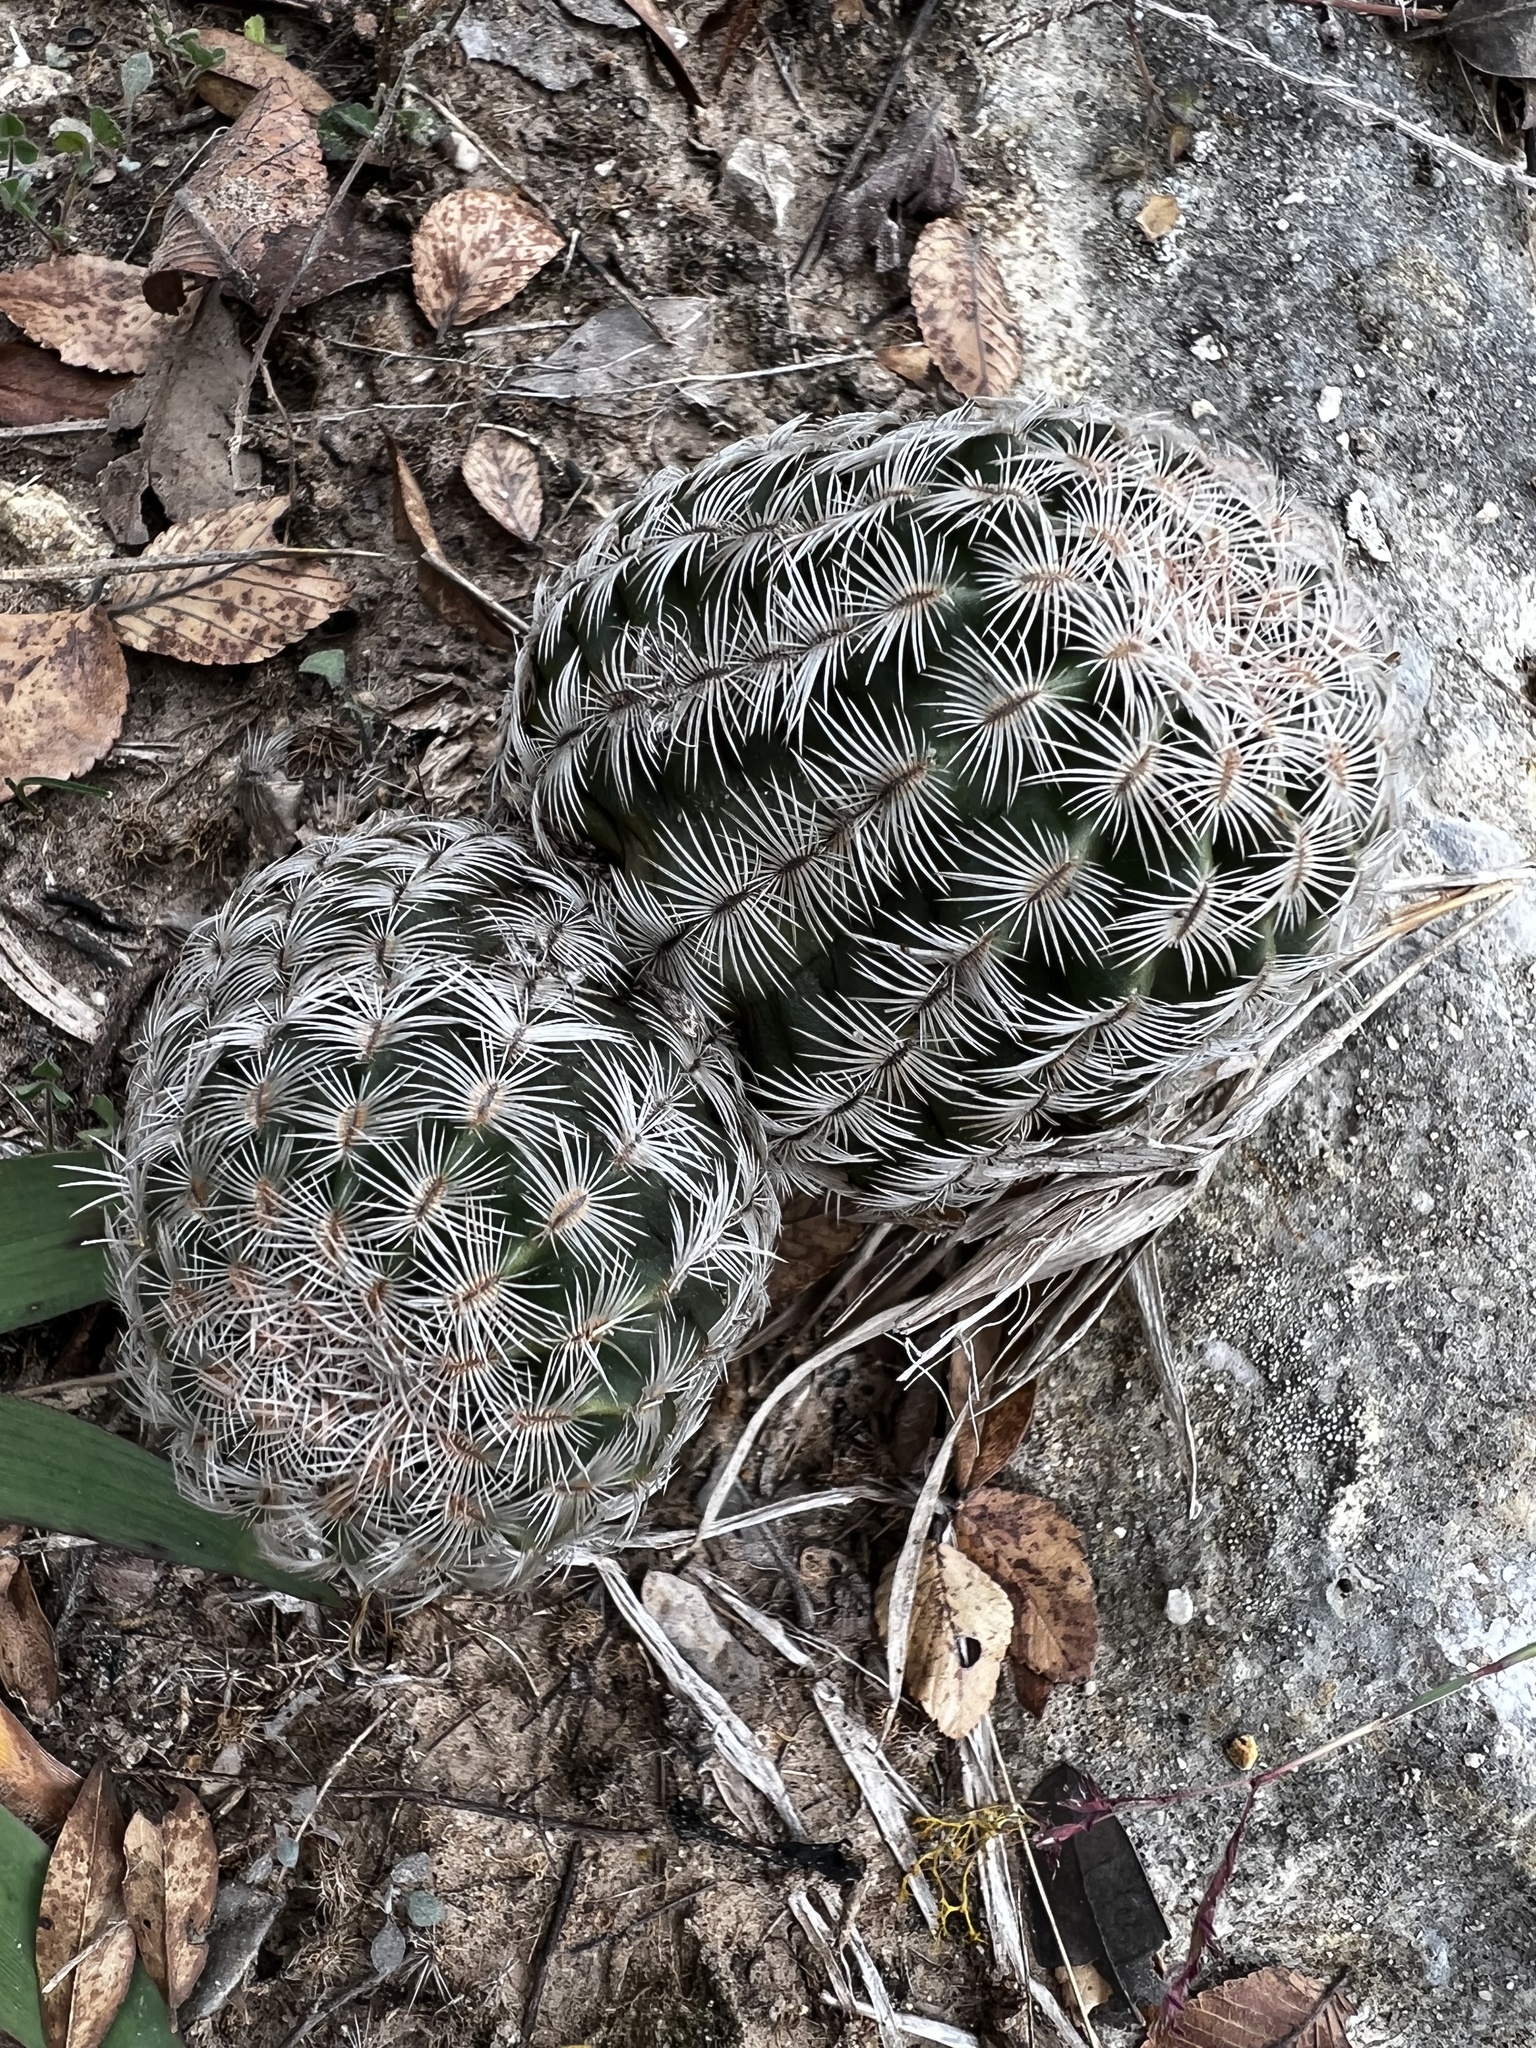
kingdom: Plantae
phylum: Tracheophyta
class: Magnoliopsida
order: Caryophyllales
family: Cactaceae
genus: Echinocereus
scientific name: Echinocereus reichenbachii
